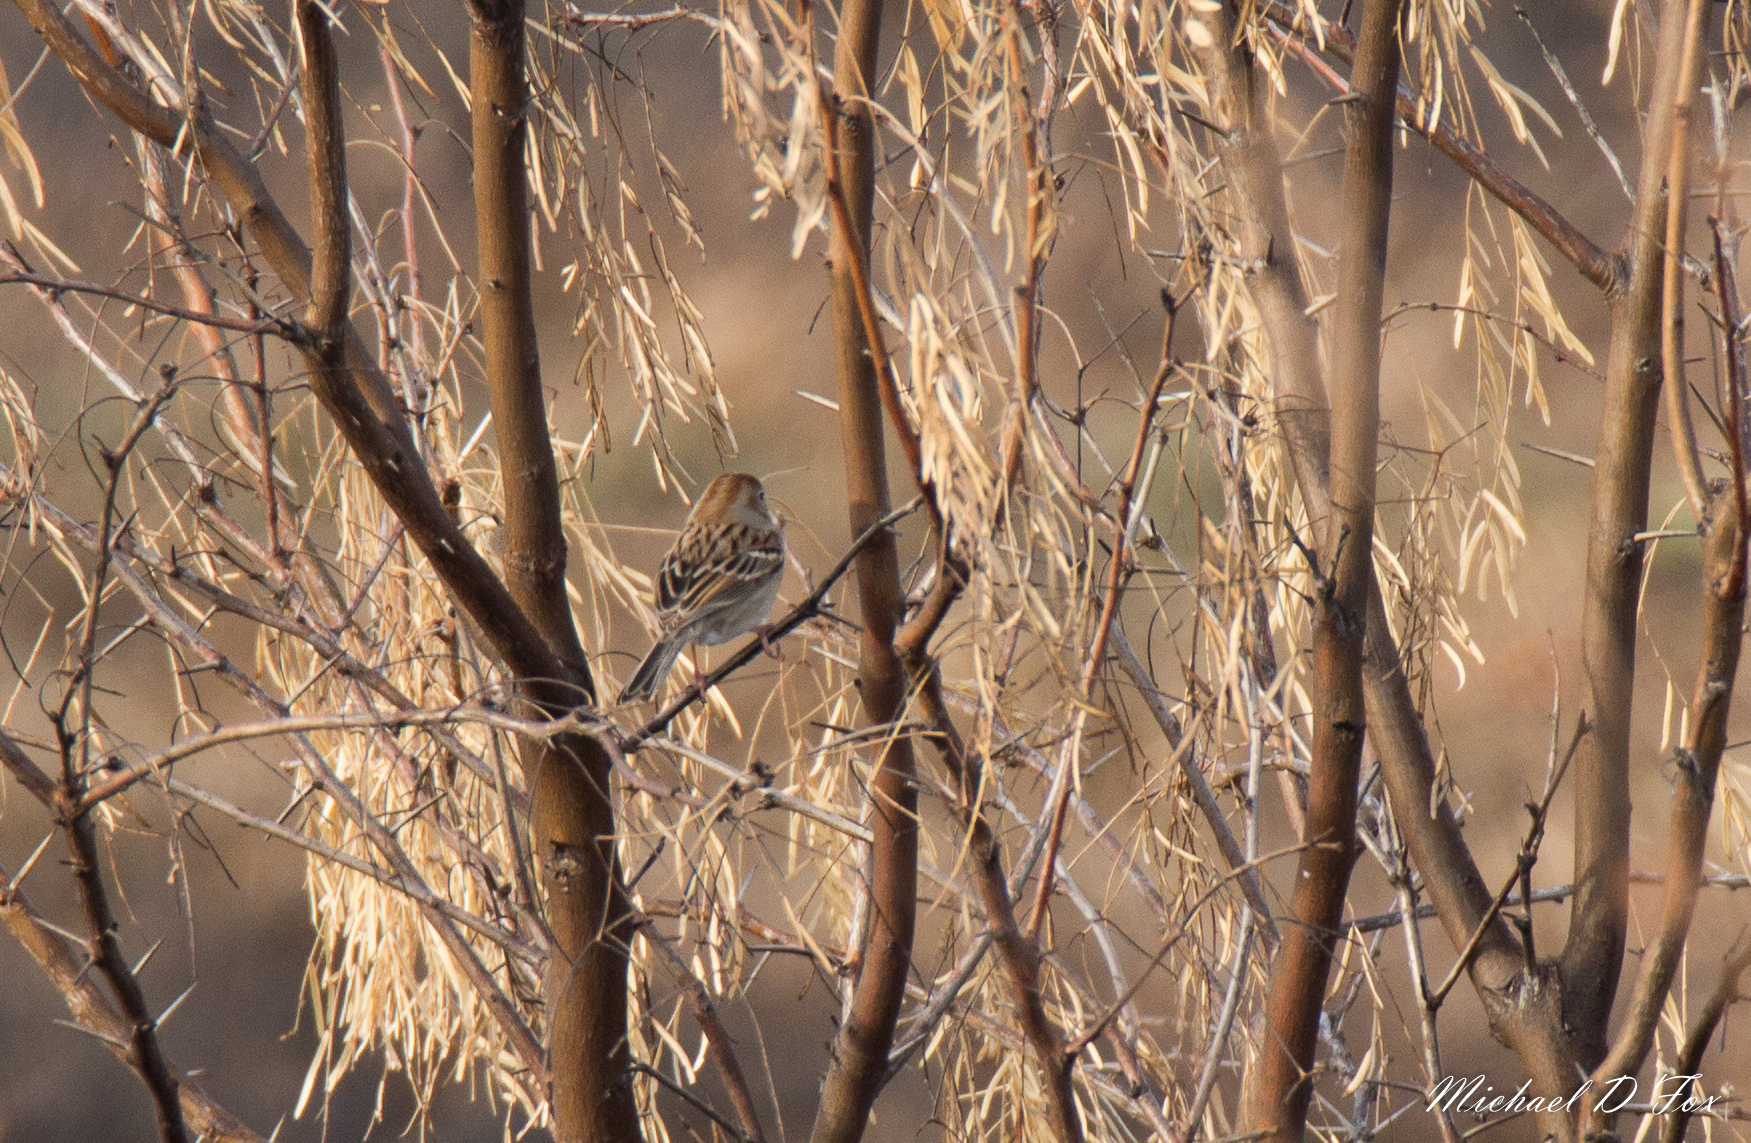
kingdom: Animalia
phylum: Chordata
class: Aves
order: Passeriformes
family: Passerellidae
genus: Spizella
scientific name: Spizella pusilla
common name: Field sparrow
